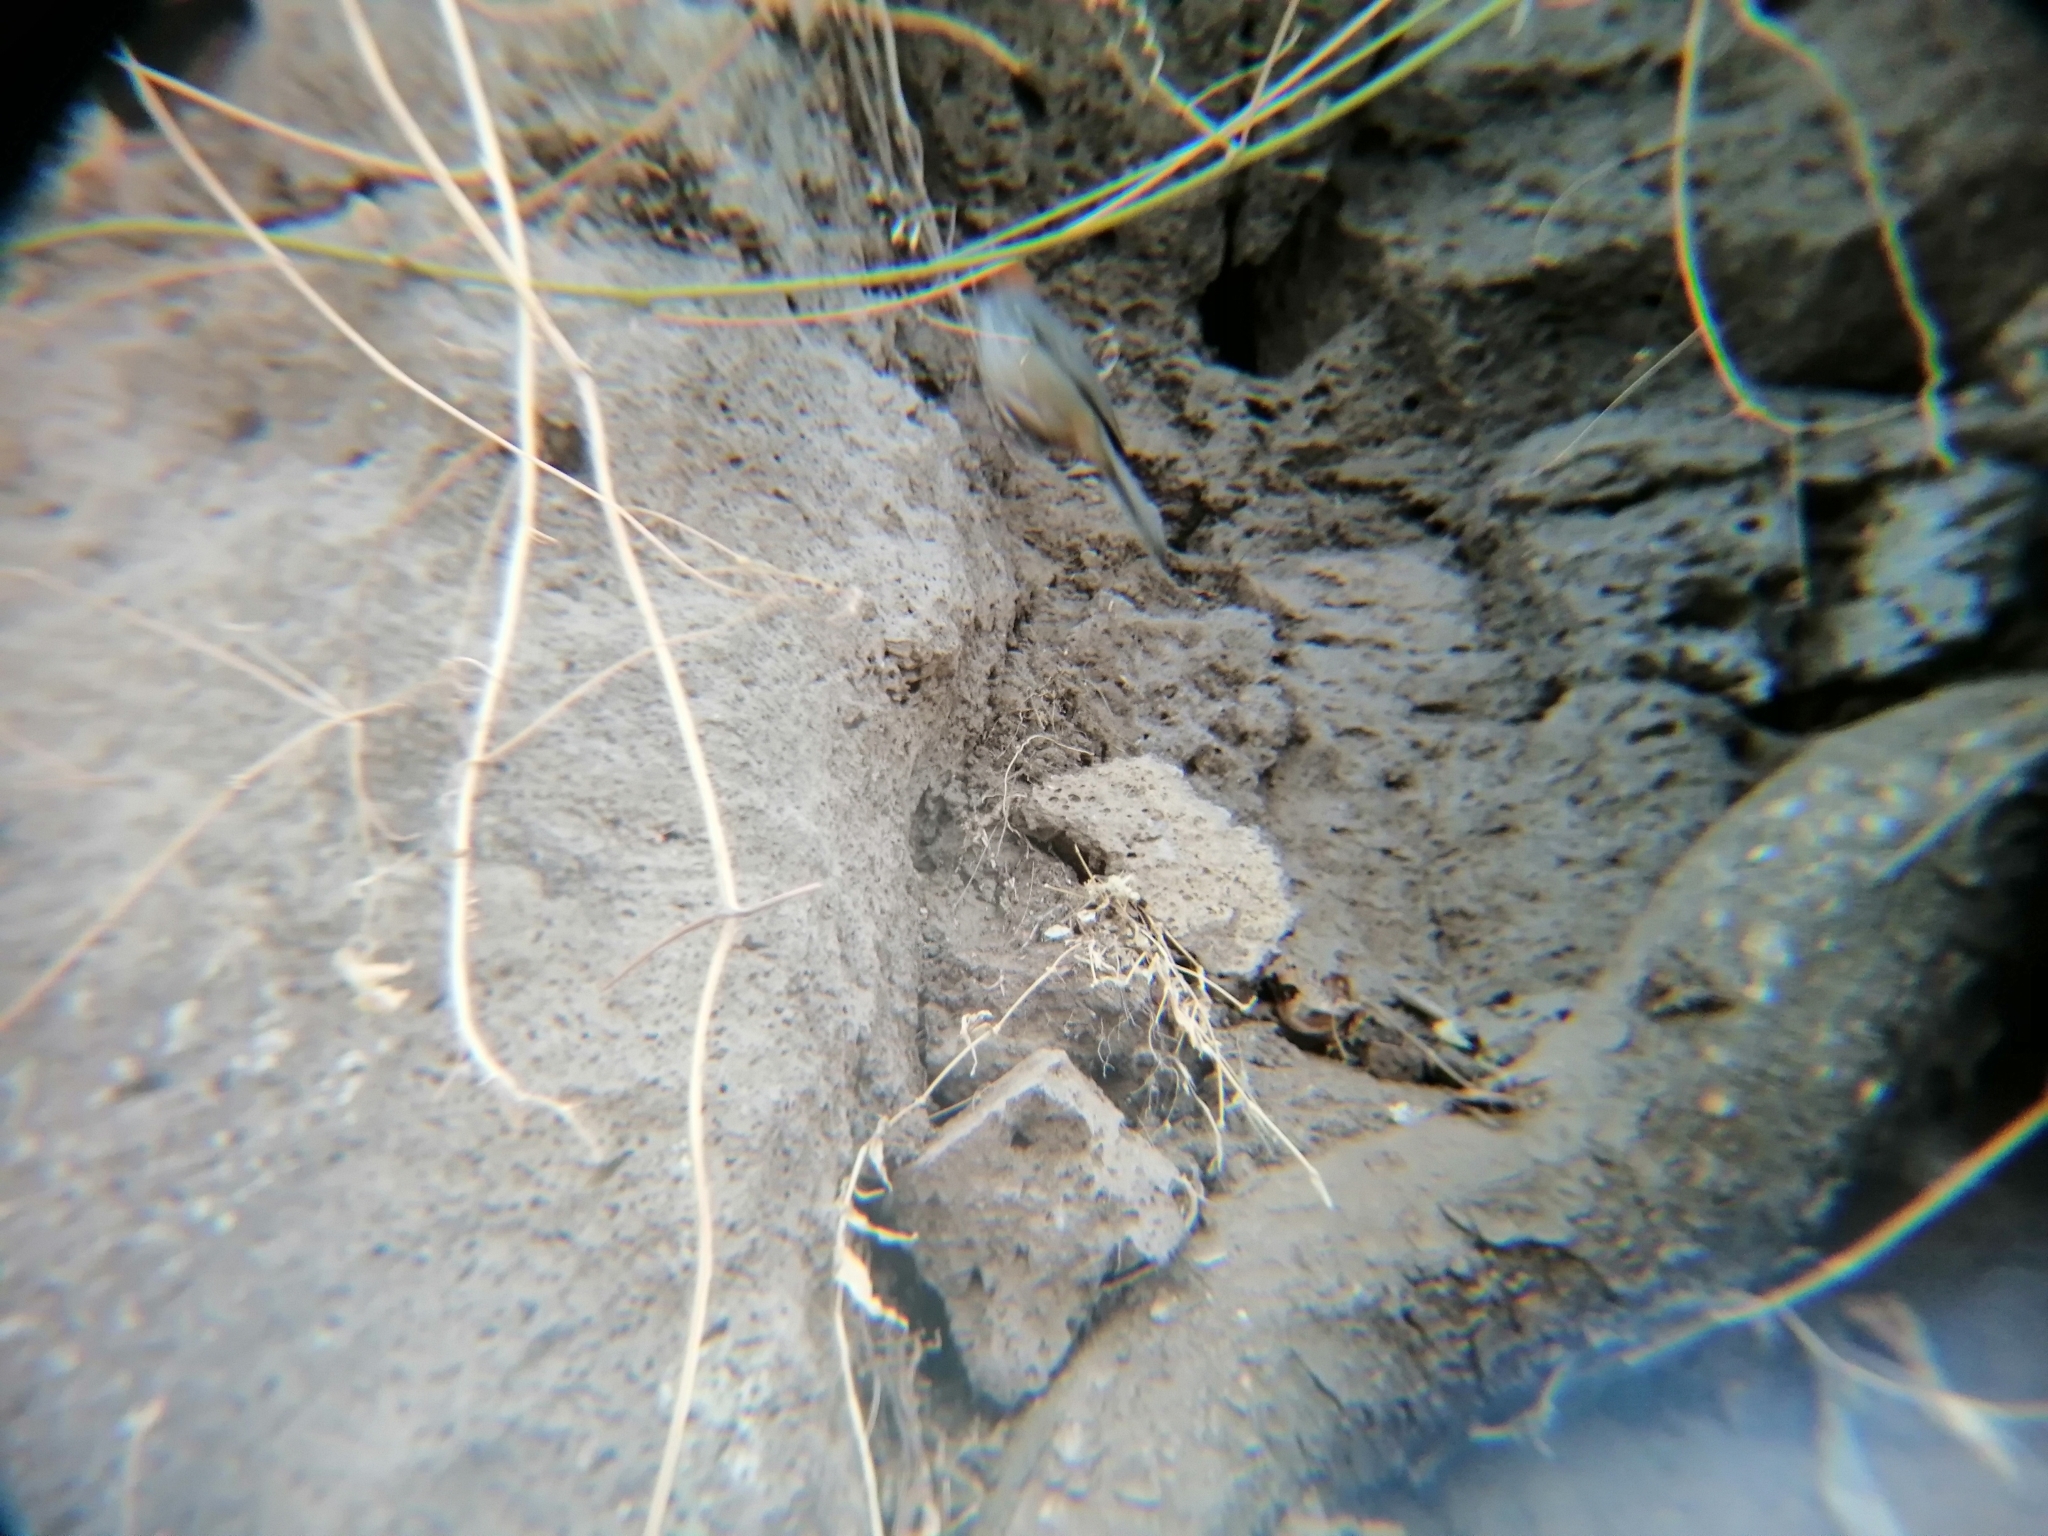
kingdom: Animalia
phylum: Chordata
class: Aves
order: Passeriformes
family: Passerellidae
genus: Melozone
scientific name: Melozone kieneri
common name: Rusty-crowned ground-sparrow
